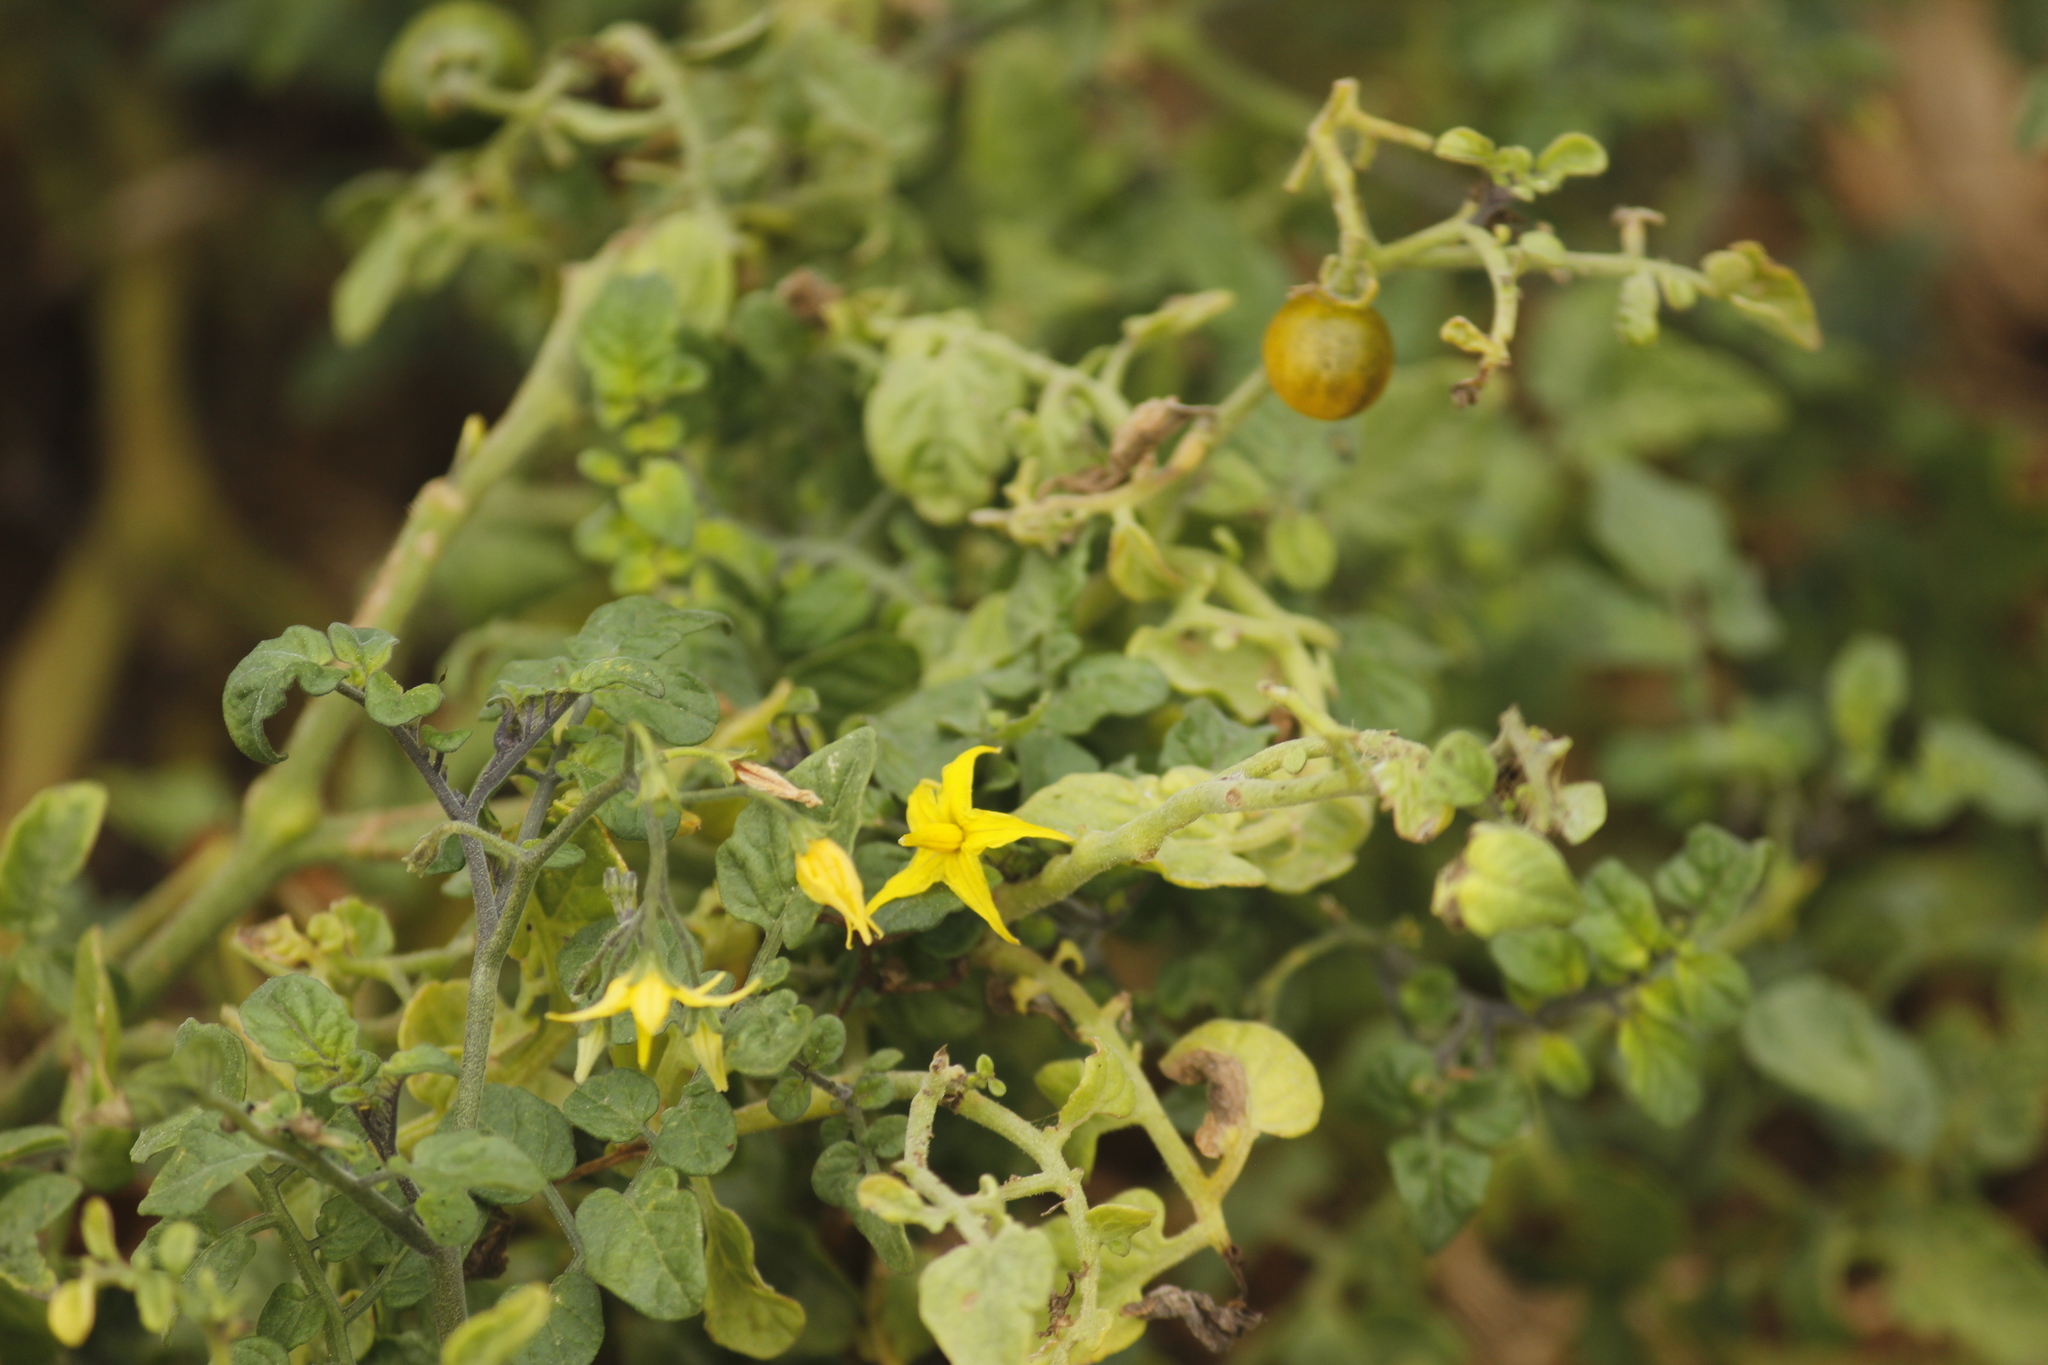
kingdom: Plantae
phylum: Tracheophyta
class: Magnoliopsida
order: Solanales
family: Solanaceae
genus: Solanum
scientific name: Solanum pimpinellifolium
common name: Currant-tomato
